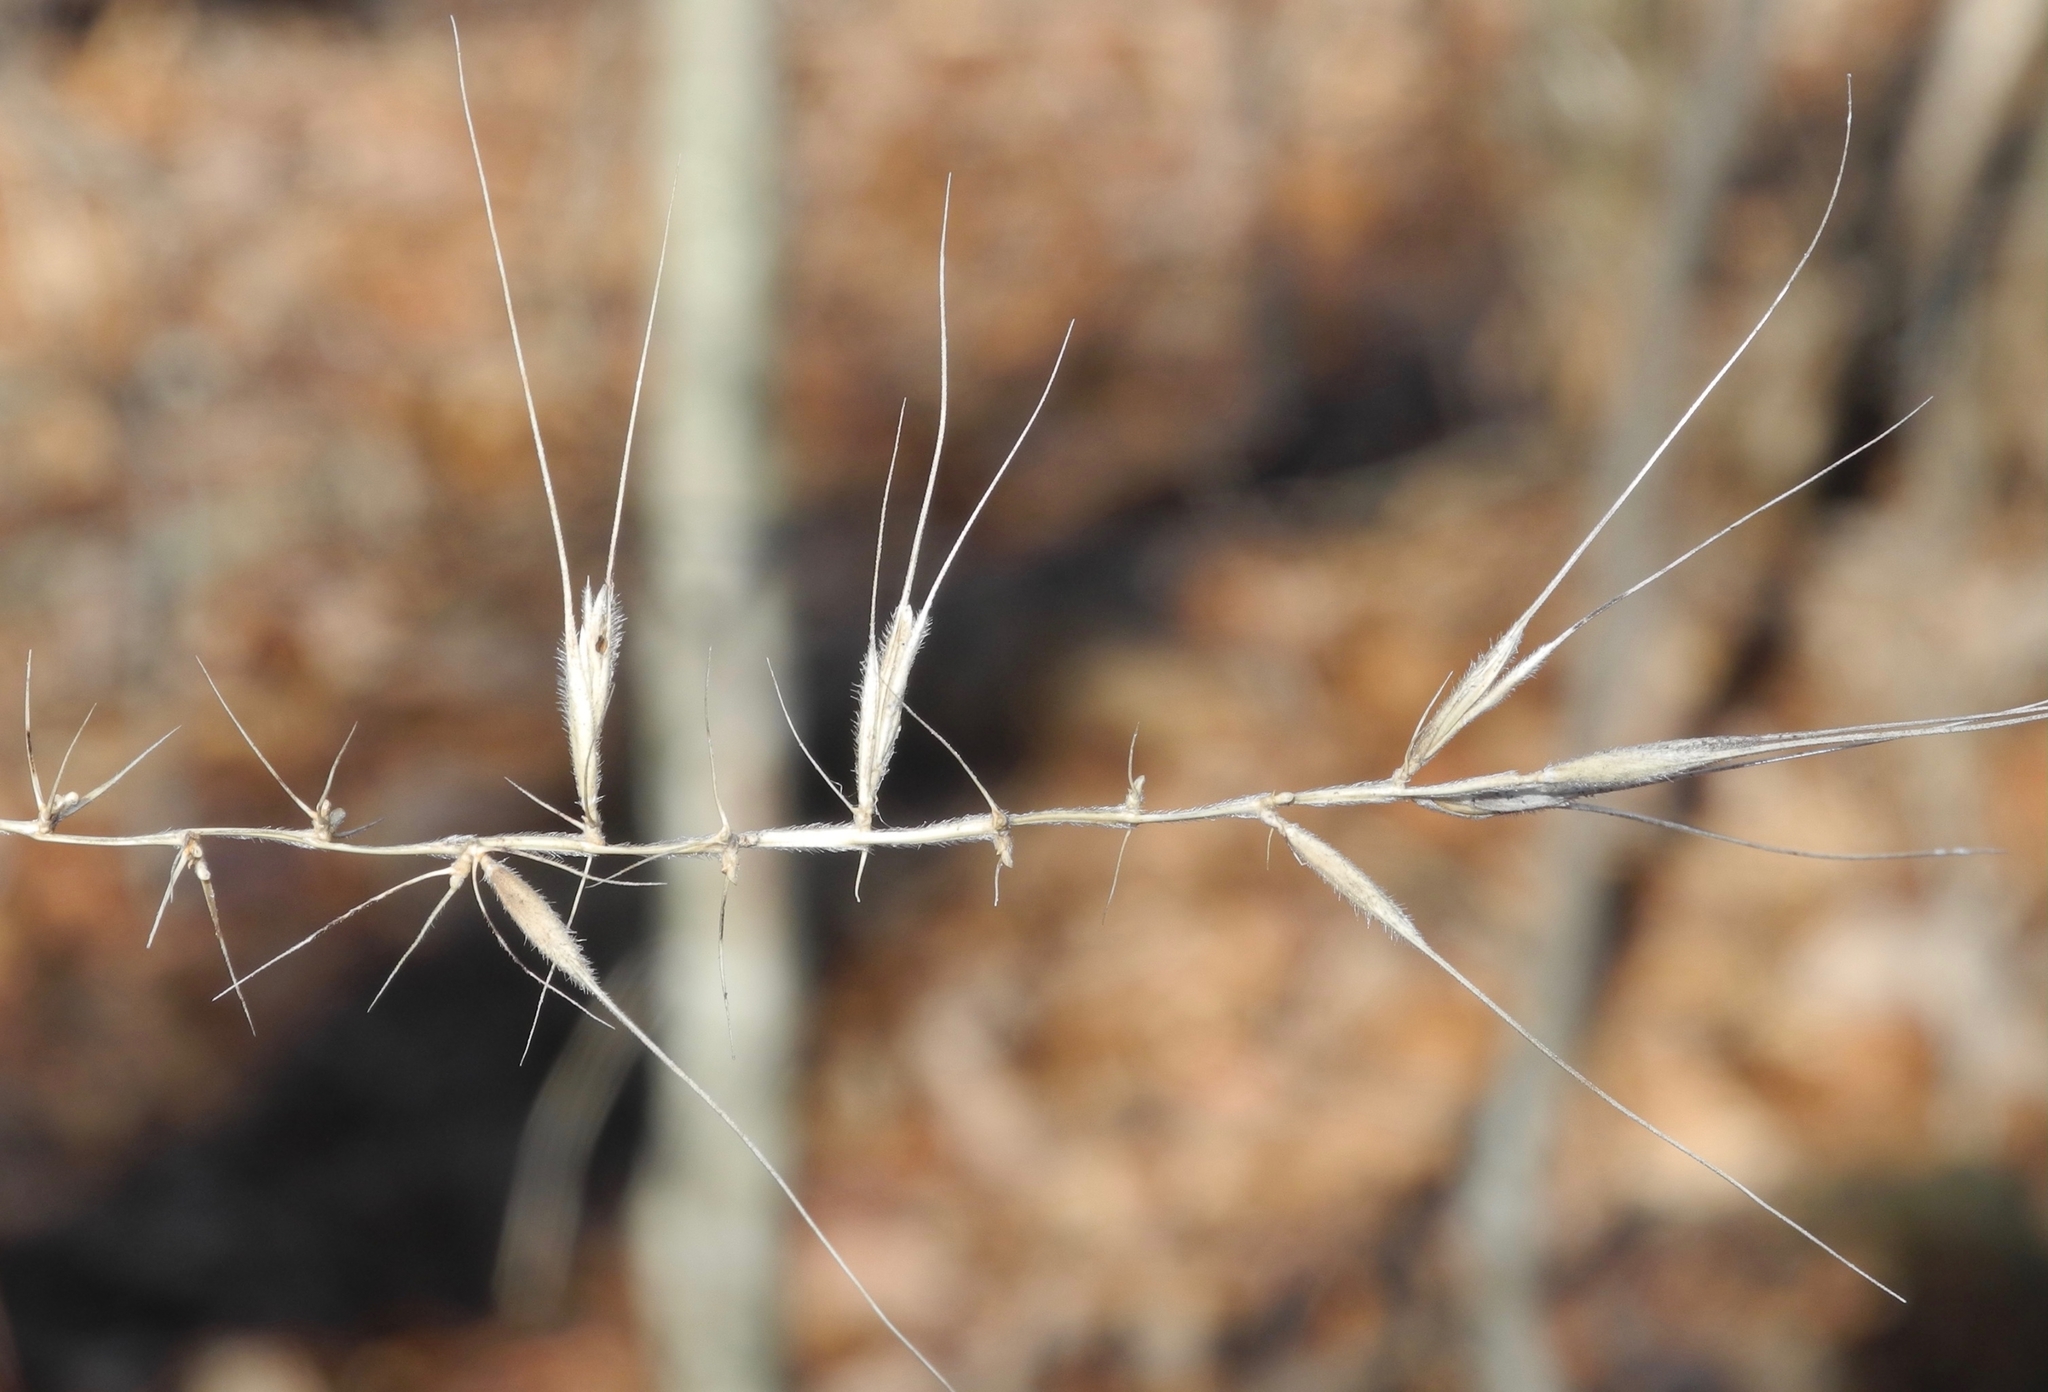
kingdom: Plantae
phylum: Tracheophyta
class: Liliopsida
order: Poales
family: Poaceae
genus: Elymus
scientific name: Elymus hystrix
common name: Bottlebrush grass
